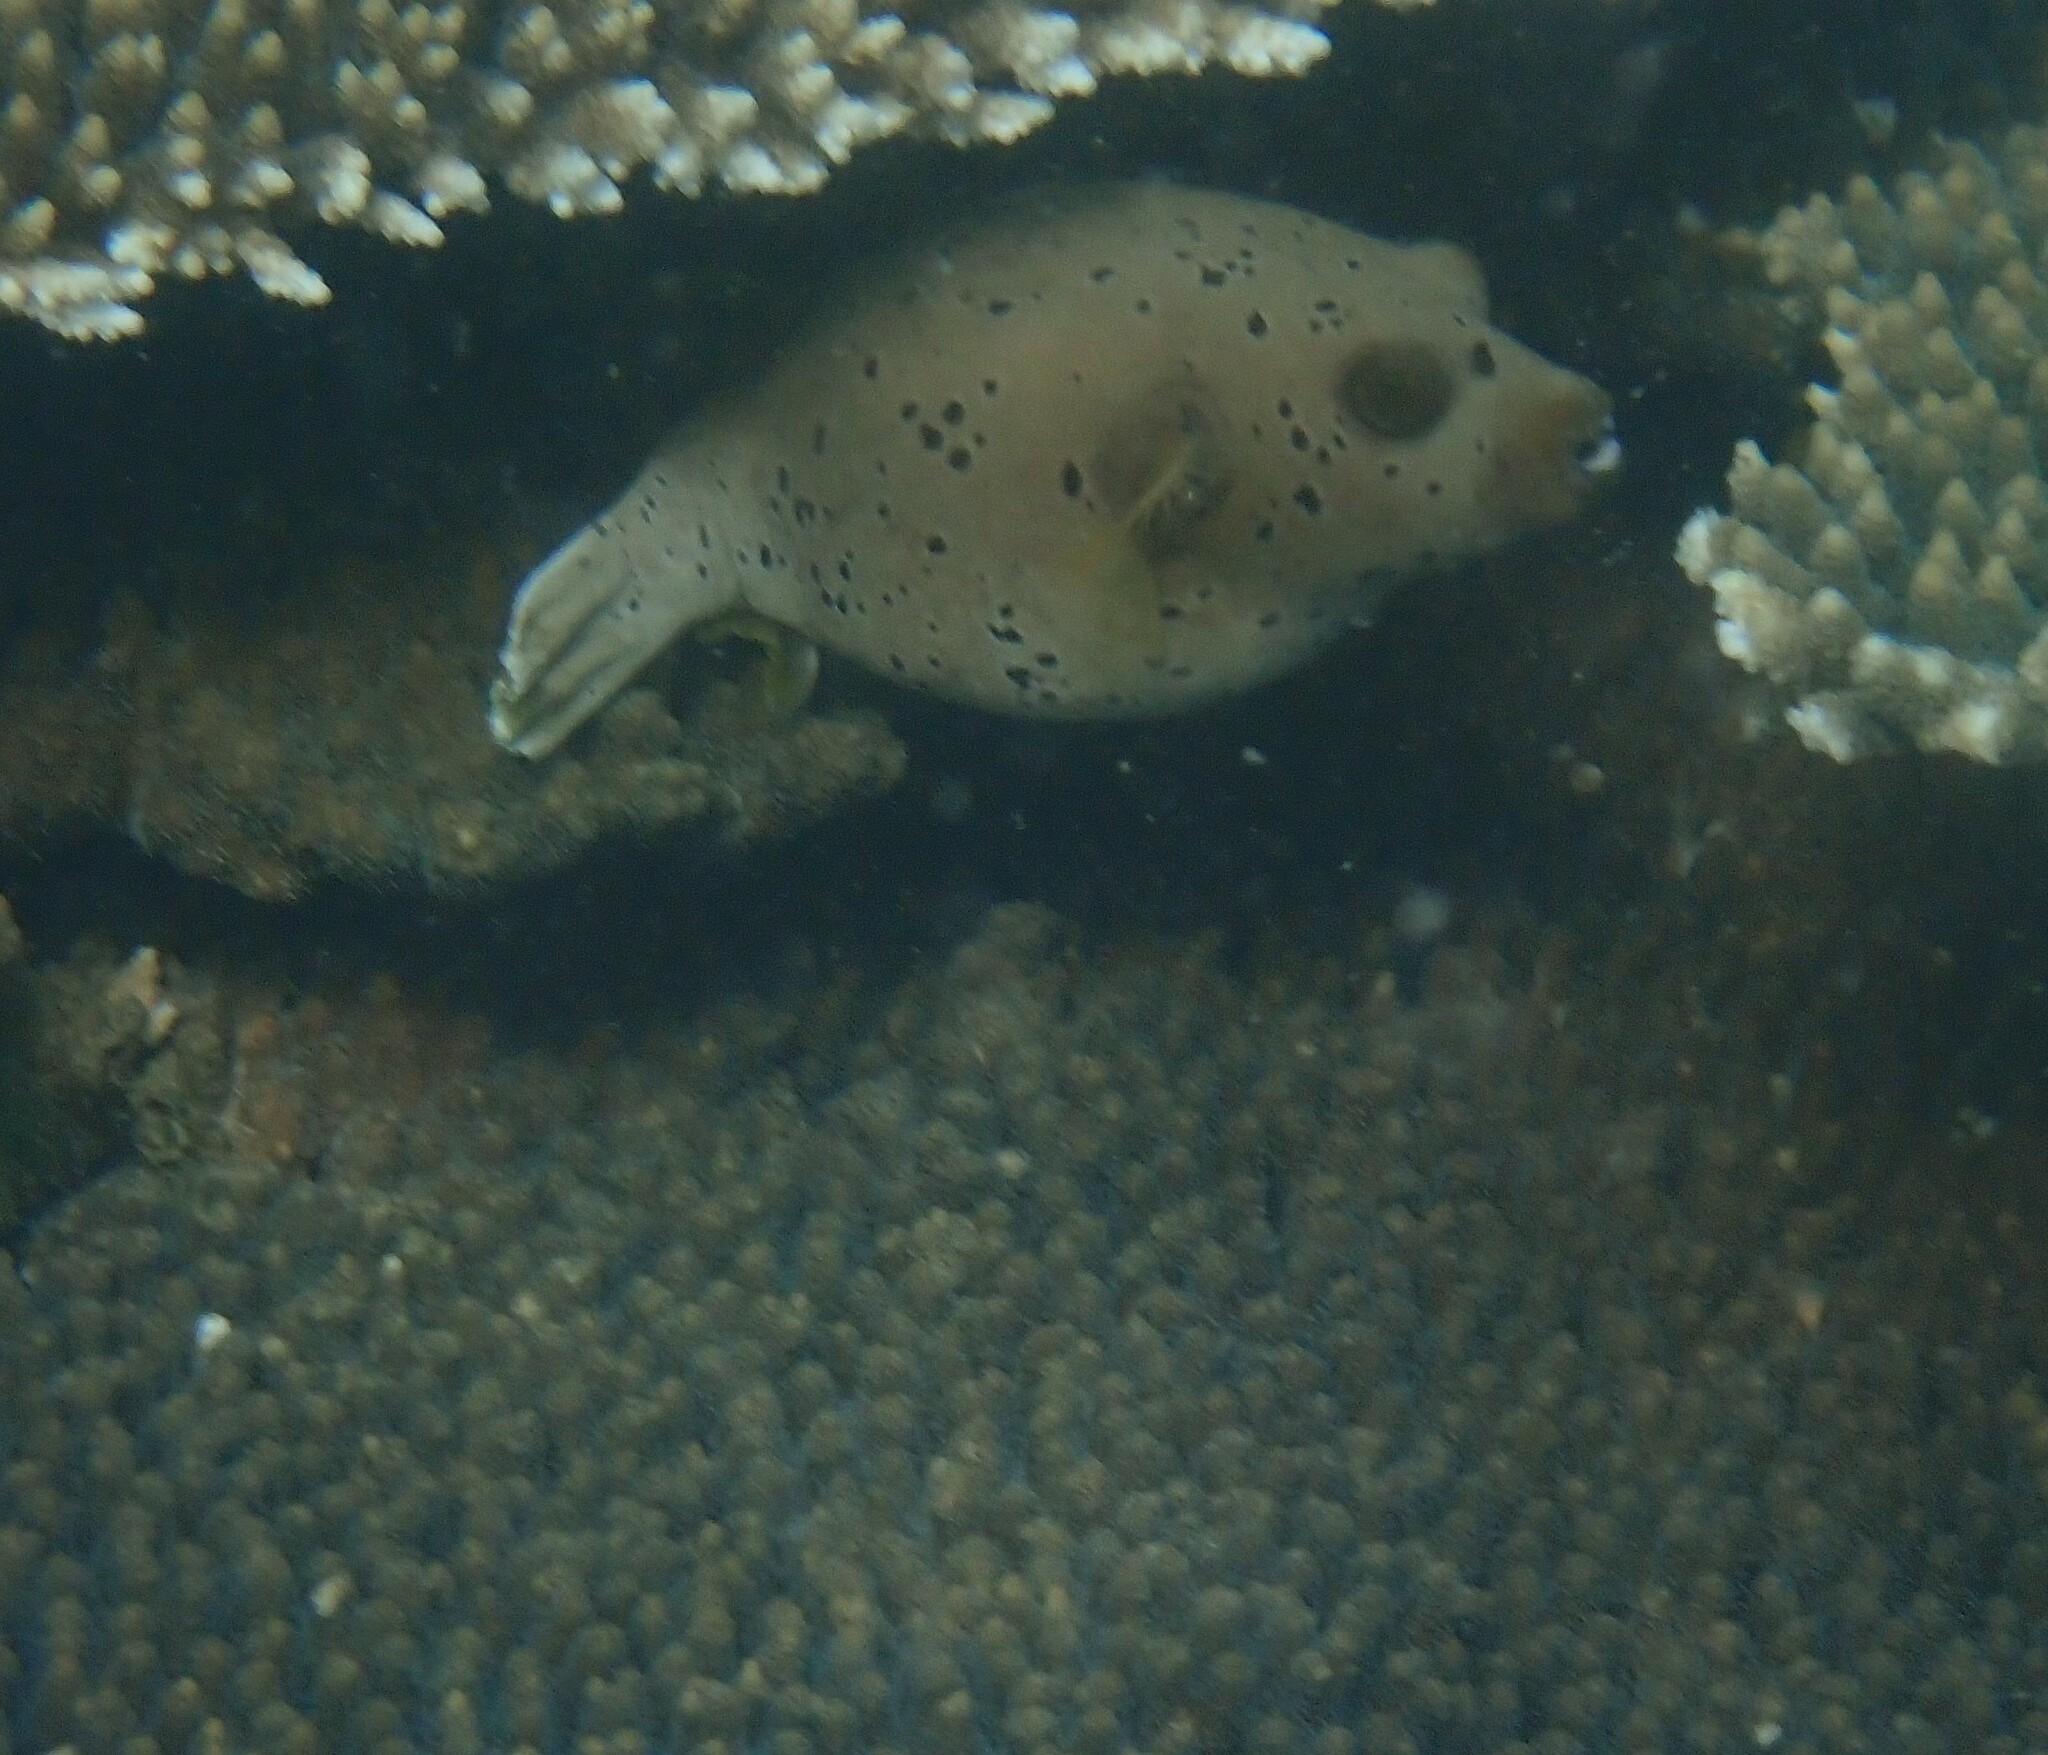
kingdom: Animalia
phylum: Chordata
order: Tetraodontiformes
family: Tetraodontidae
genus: Arothron
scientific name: Arothron nigropunctatus
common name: Black spotted blow fish
